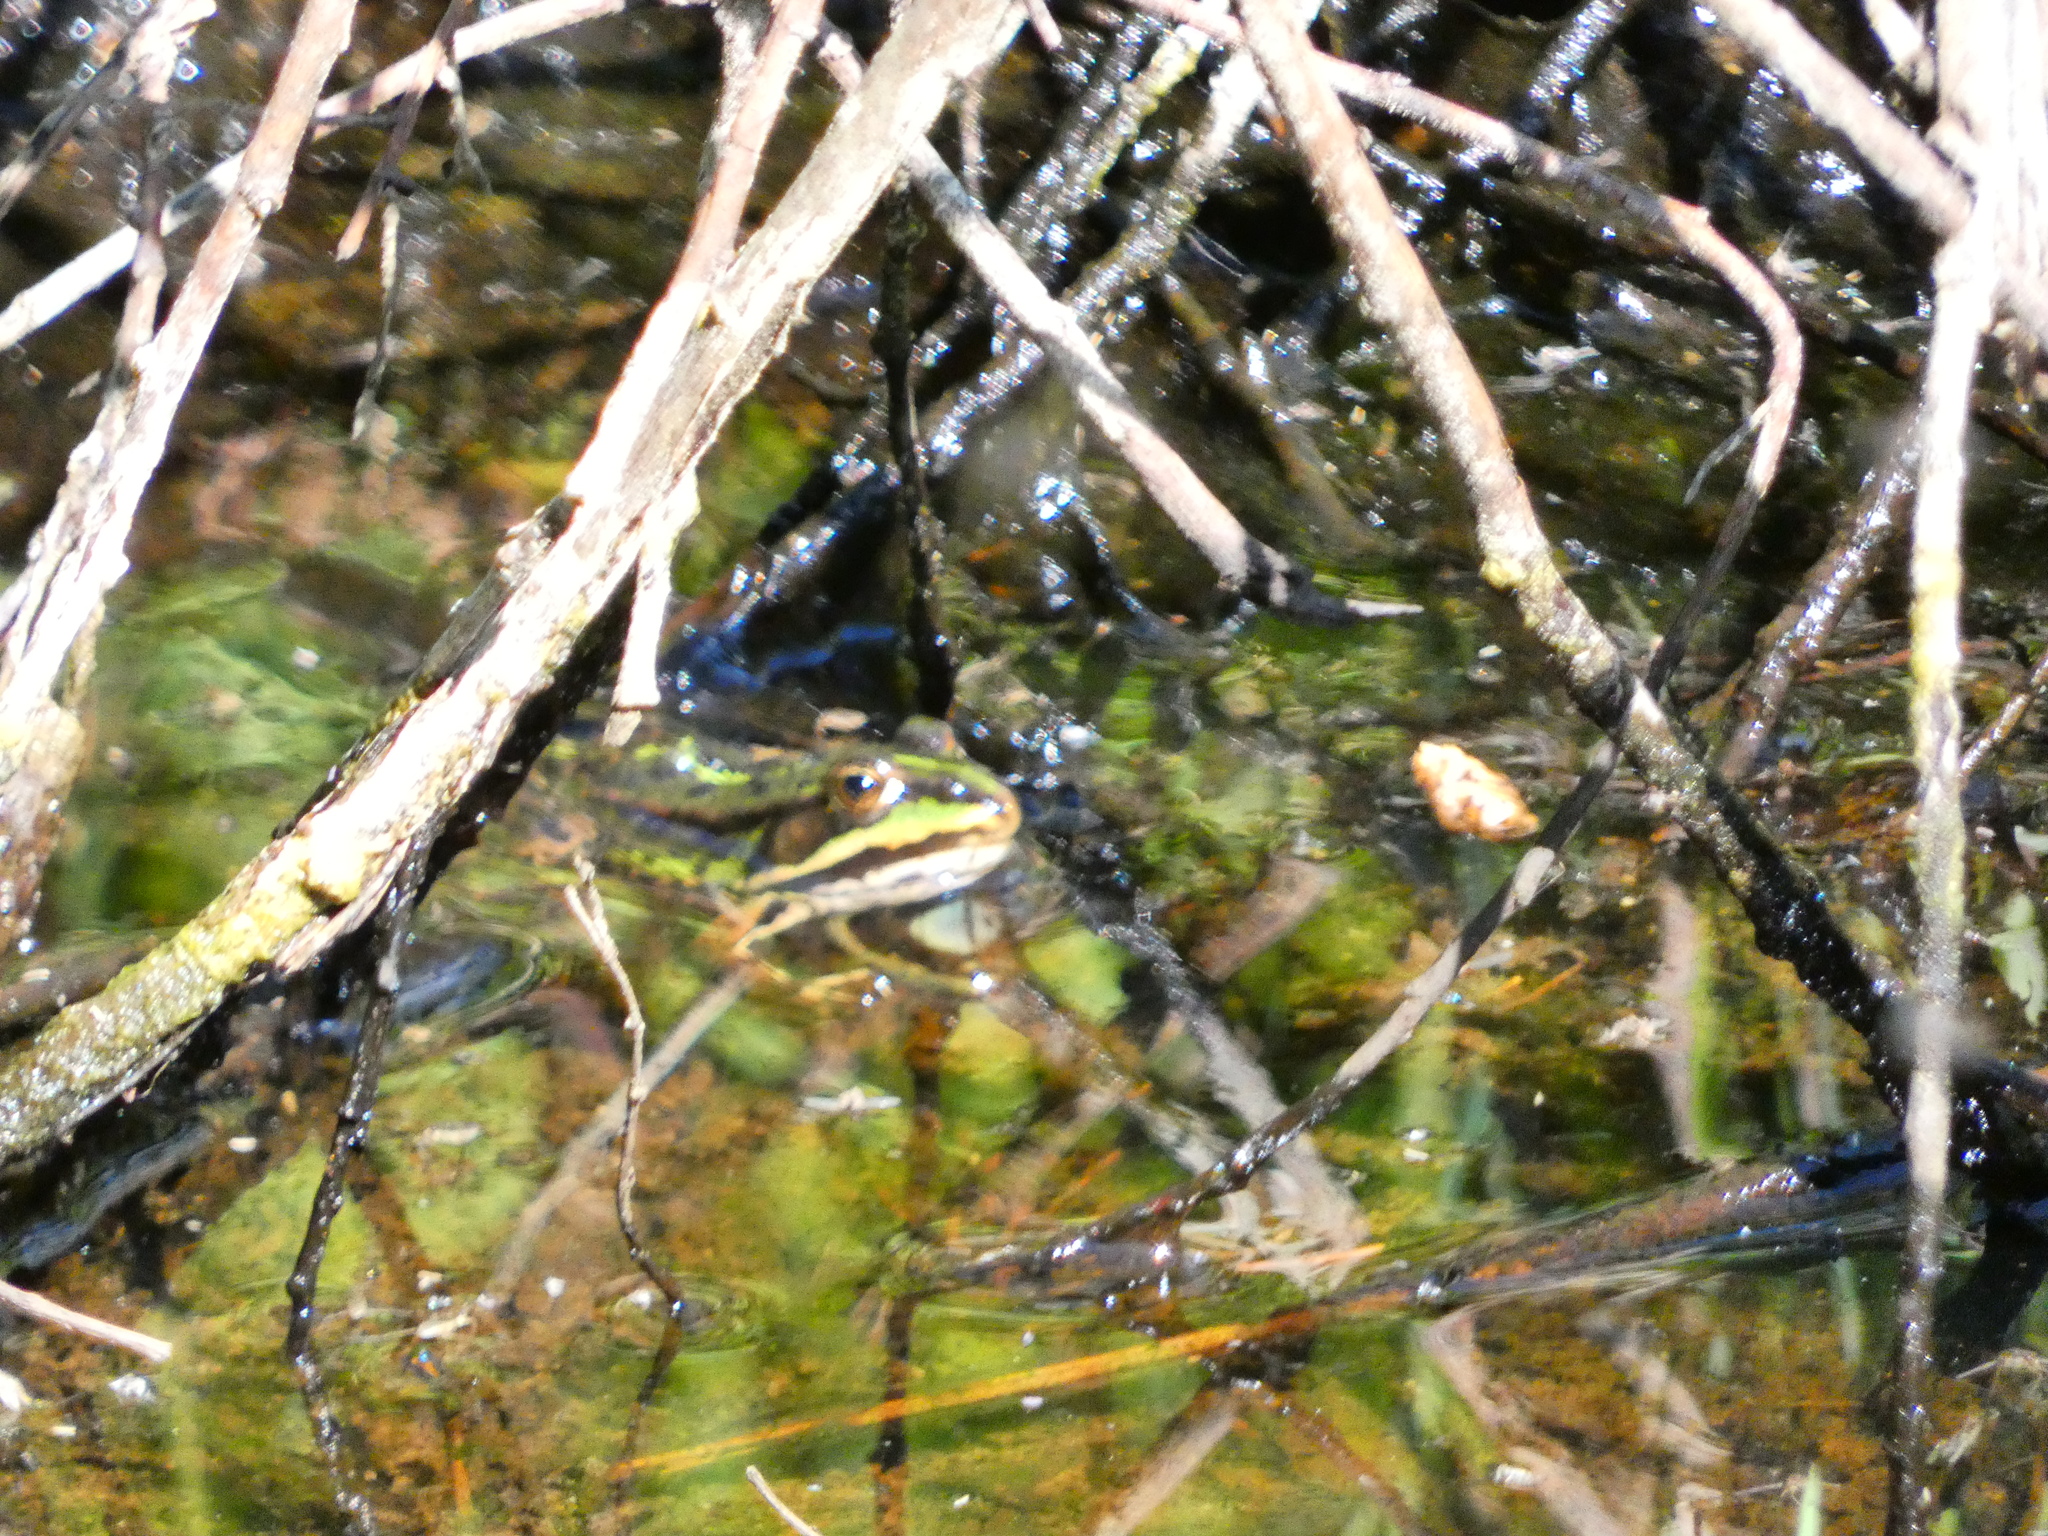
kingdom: Animalia
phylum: Chordata
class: Amphibia
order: Anura
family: Ranidae
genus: Pelophylax
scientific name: Pelophylax ridibundus
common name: Marsh frog
